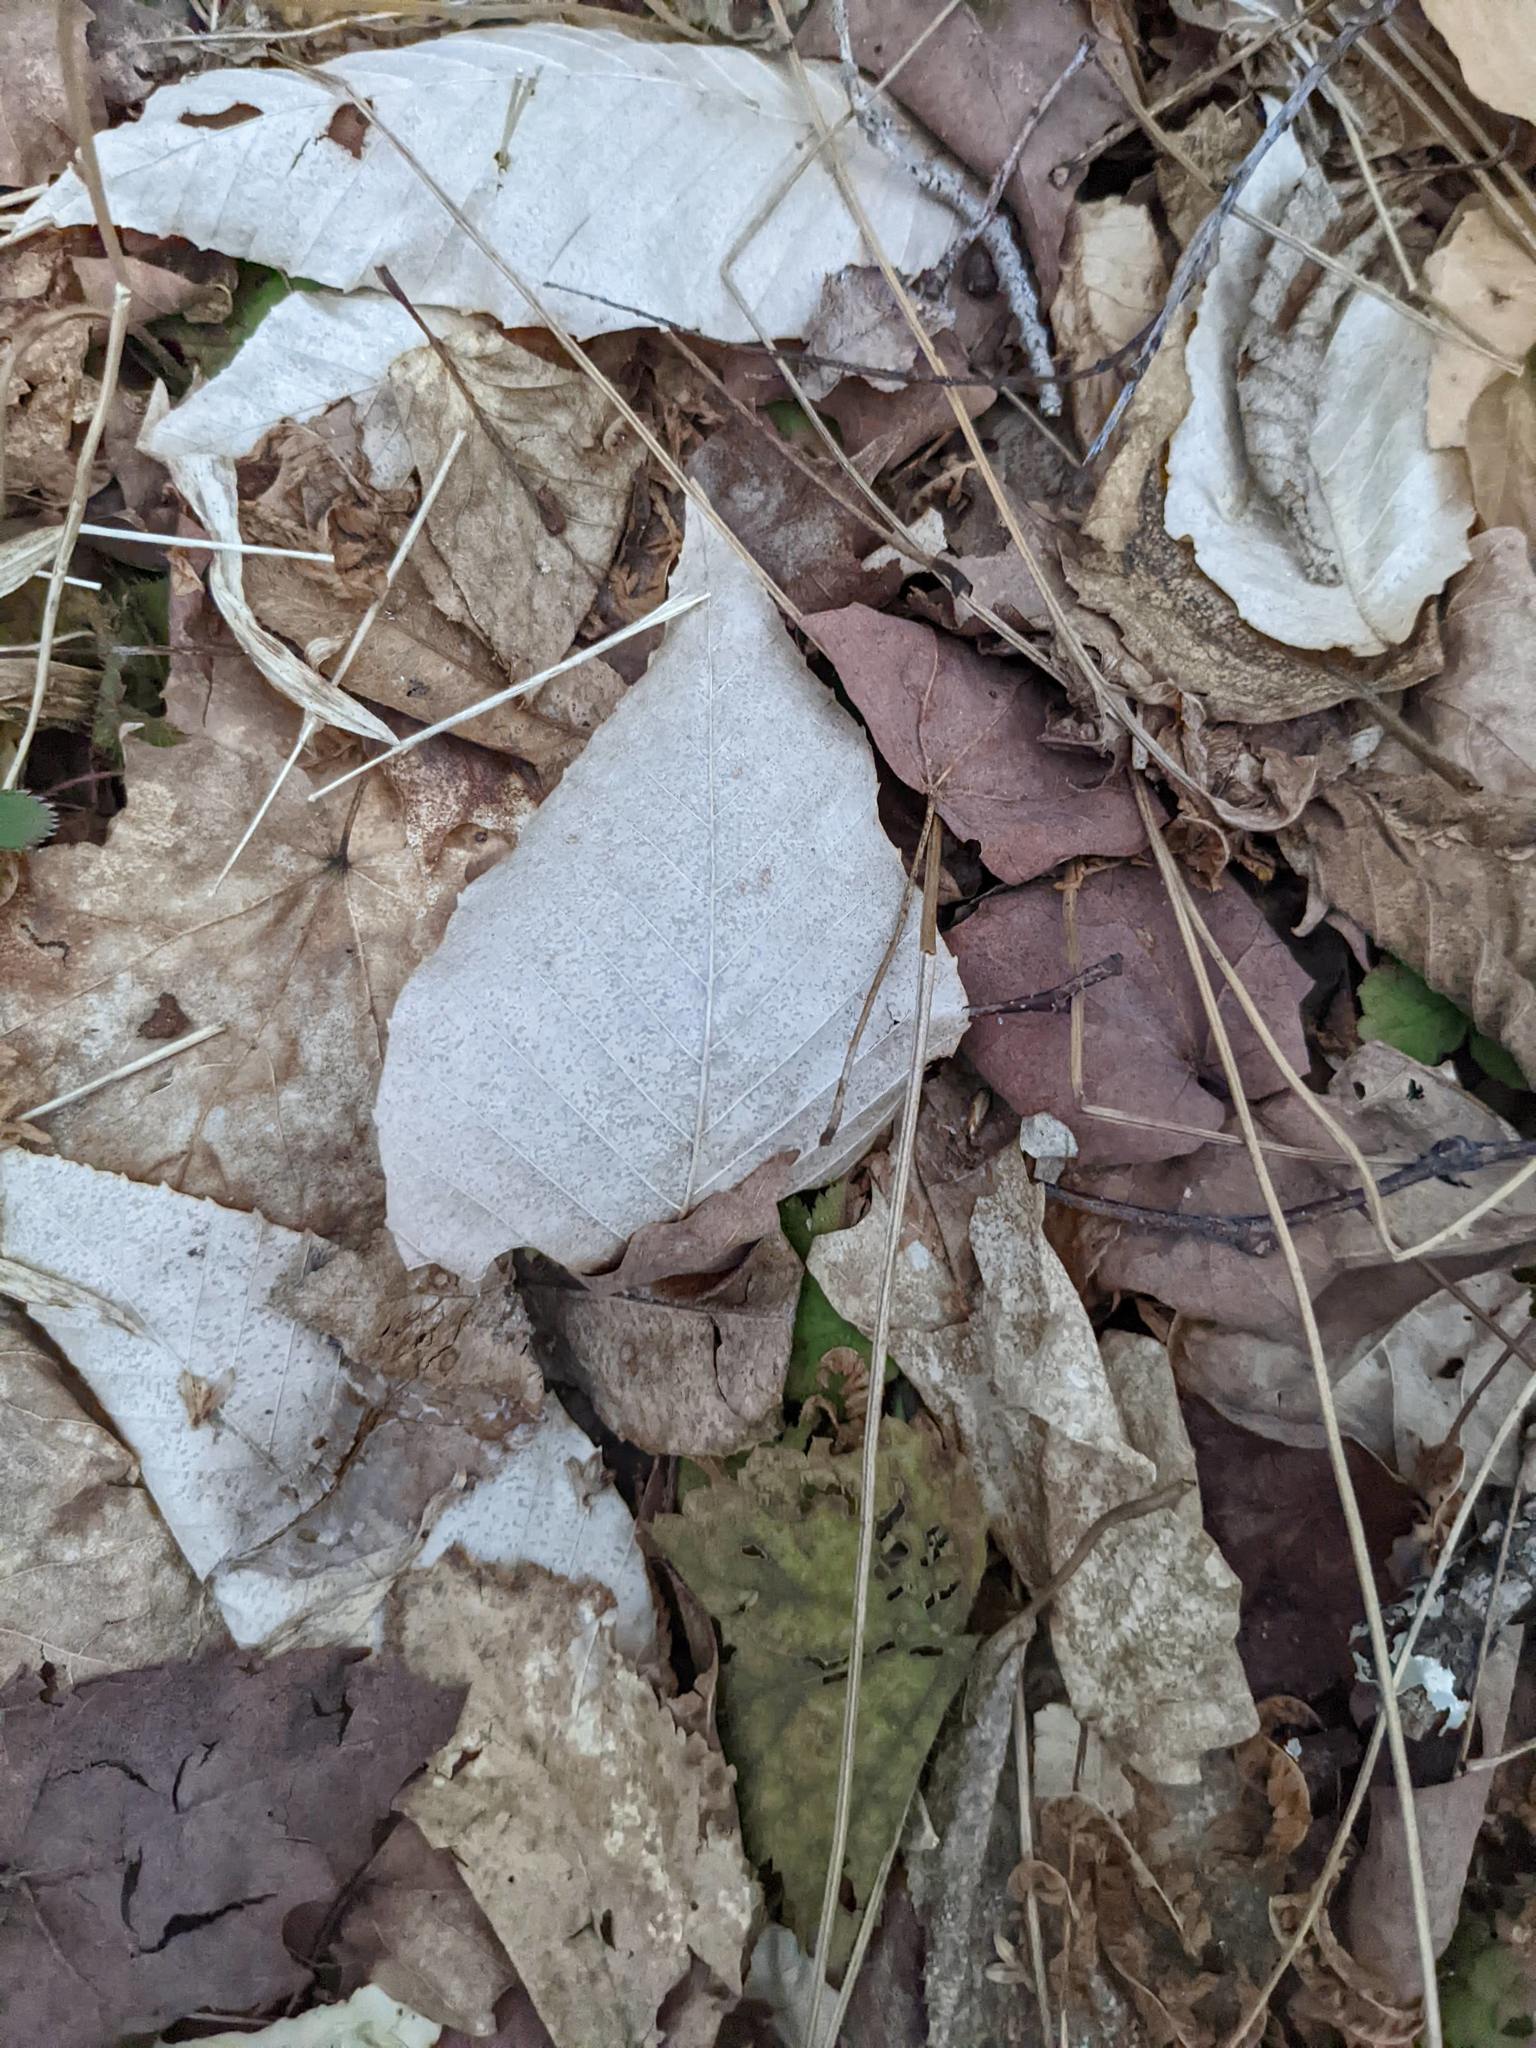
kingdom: Plantae
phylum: Tracheophyta
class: Magnoliopsida
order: Fagales
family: Fagaceae
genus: Fagus
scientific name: Fagus grandifolia
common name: American beech
